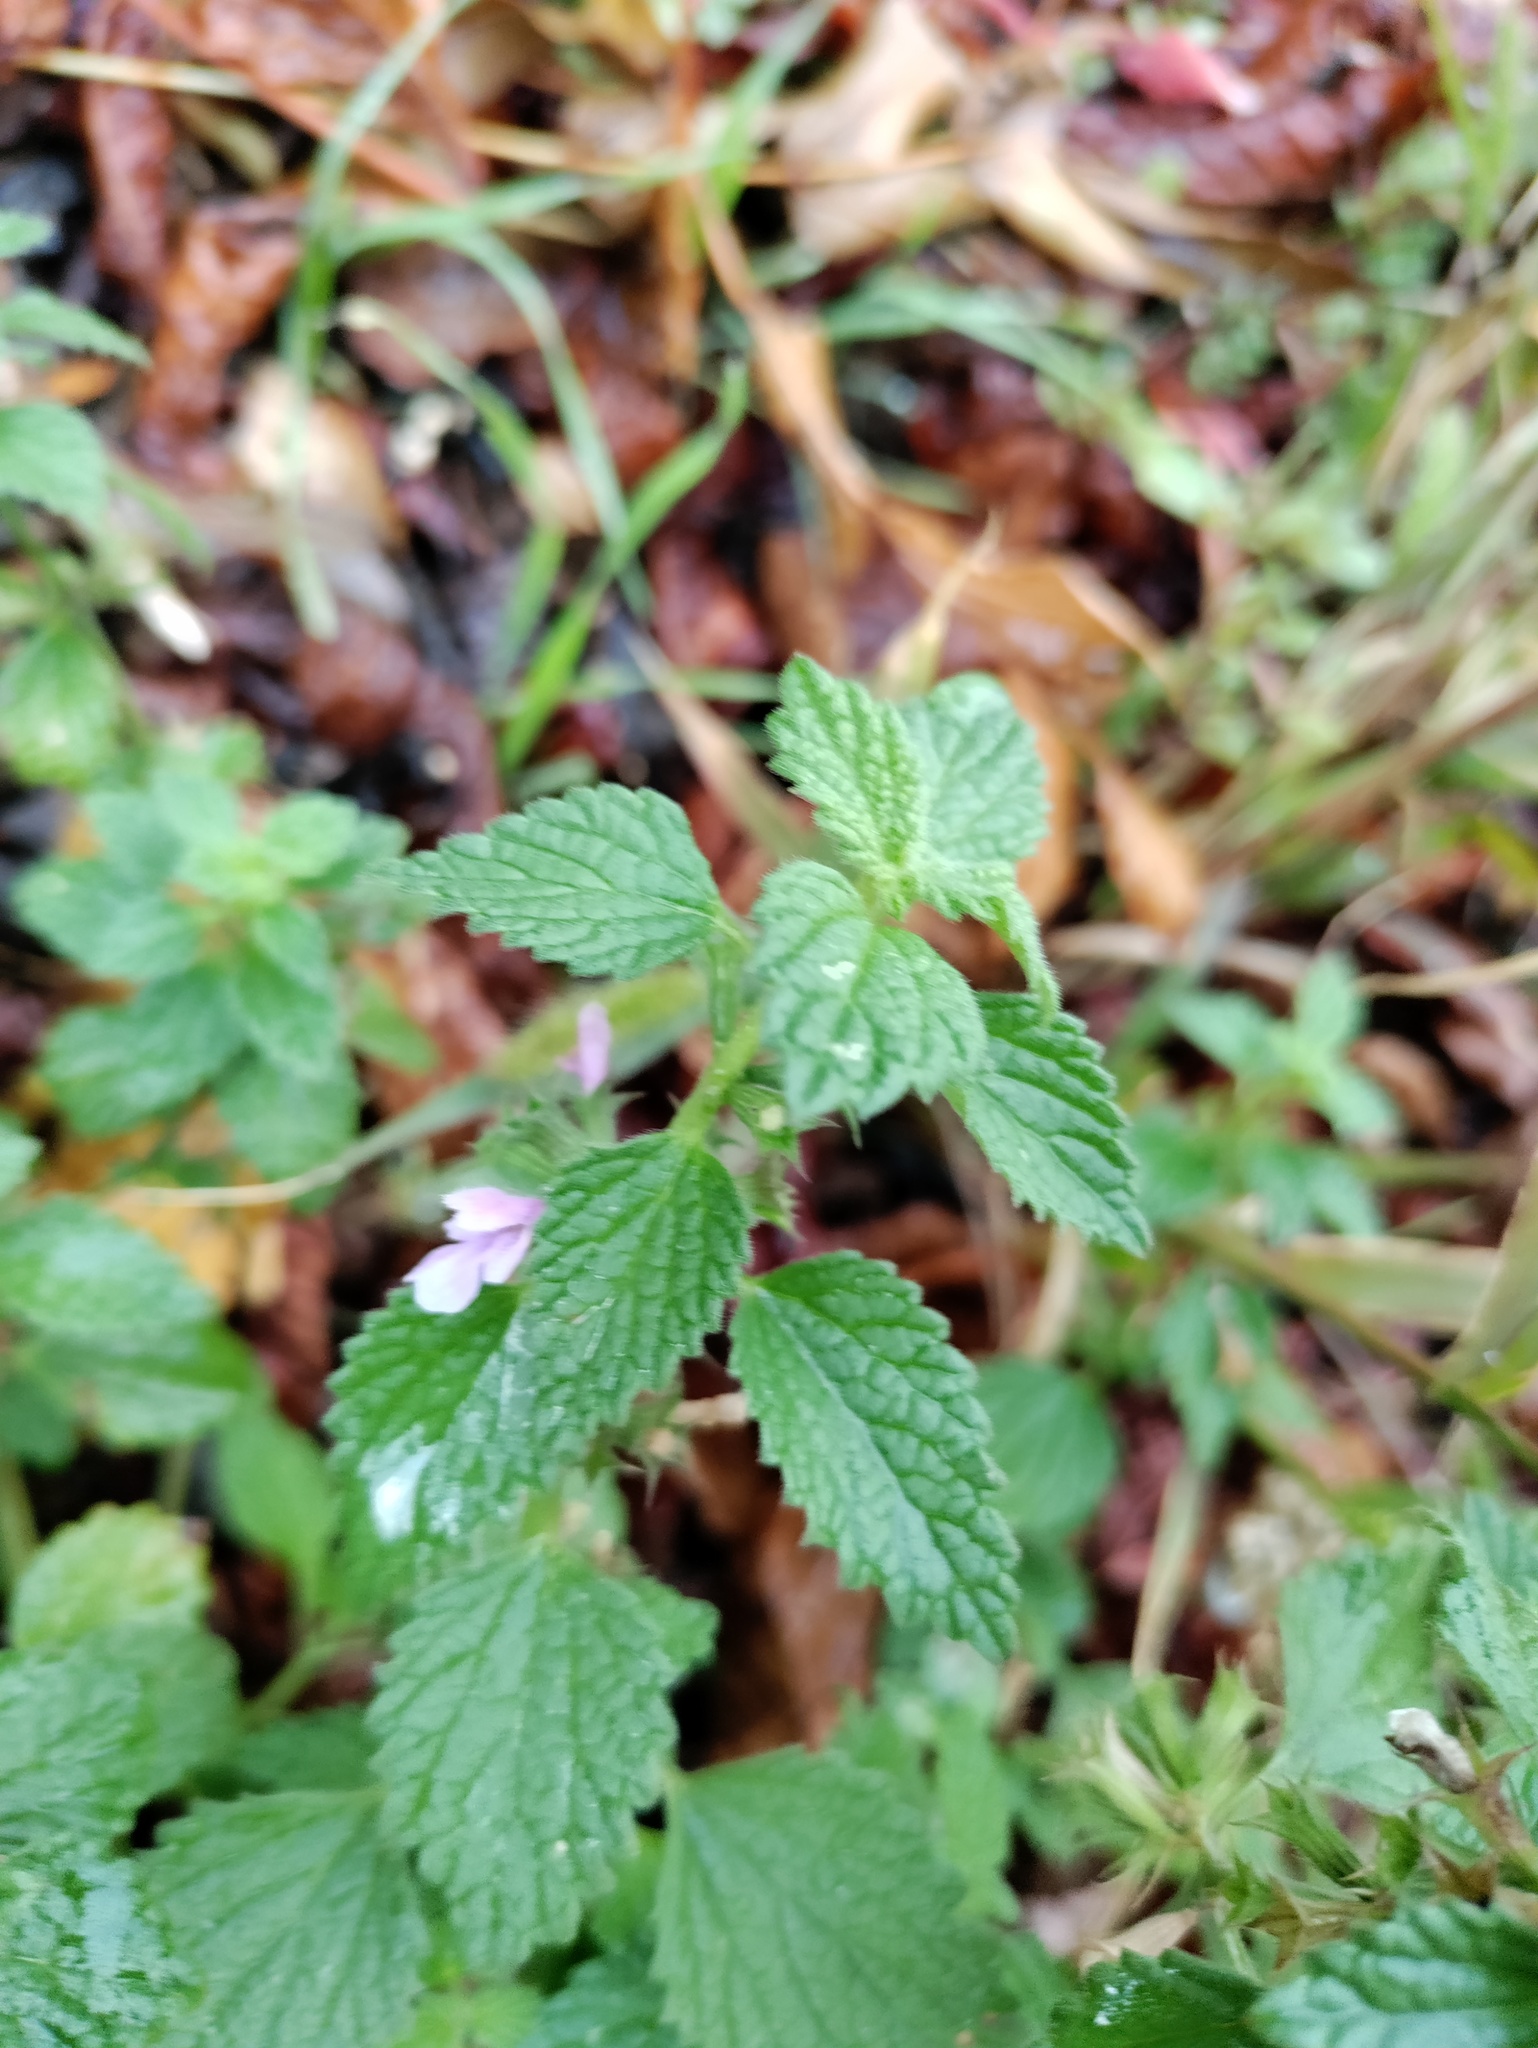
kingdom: Plantae
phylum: Tracheophyta
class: Magnoliopsida
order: Lamiales
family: Lamiaceae
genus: Ballota
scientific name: Ballota nigra
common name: Black horehound
